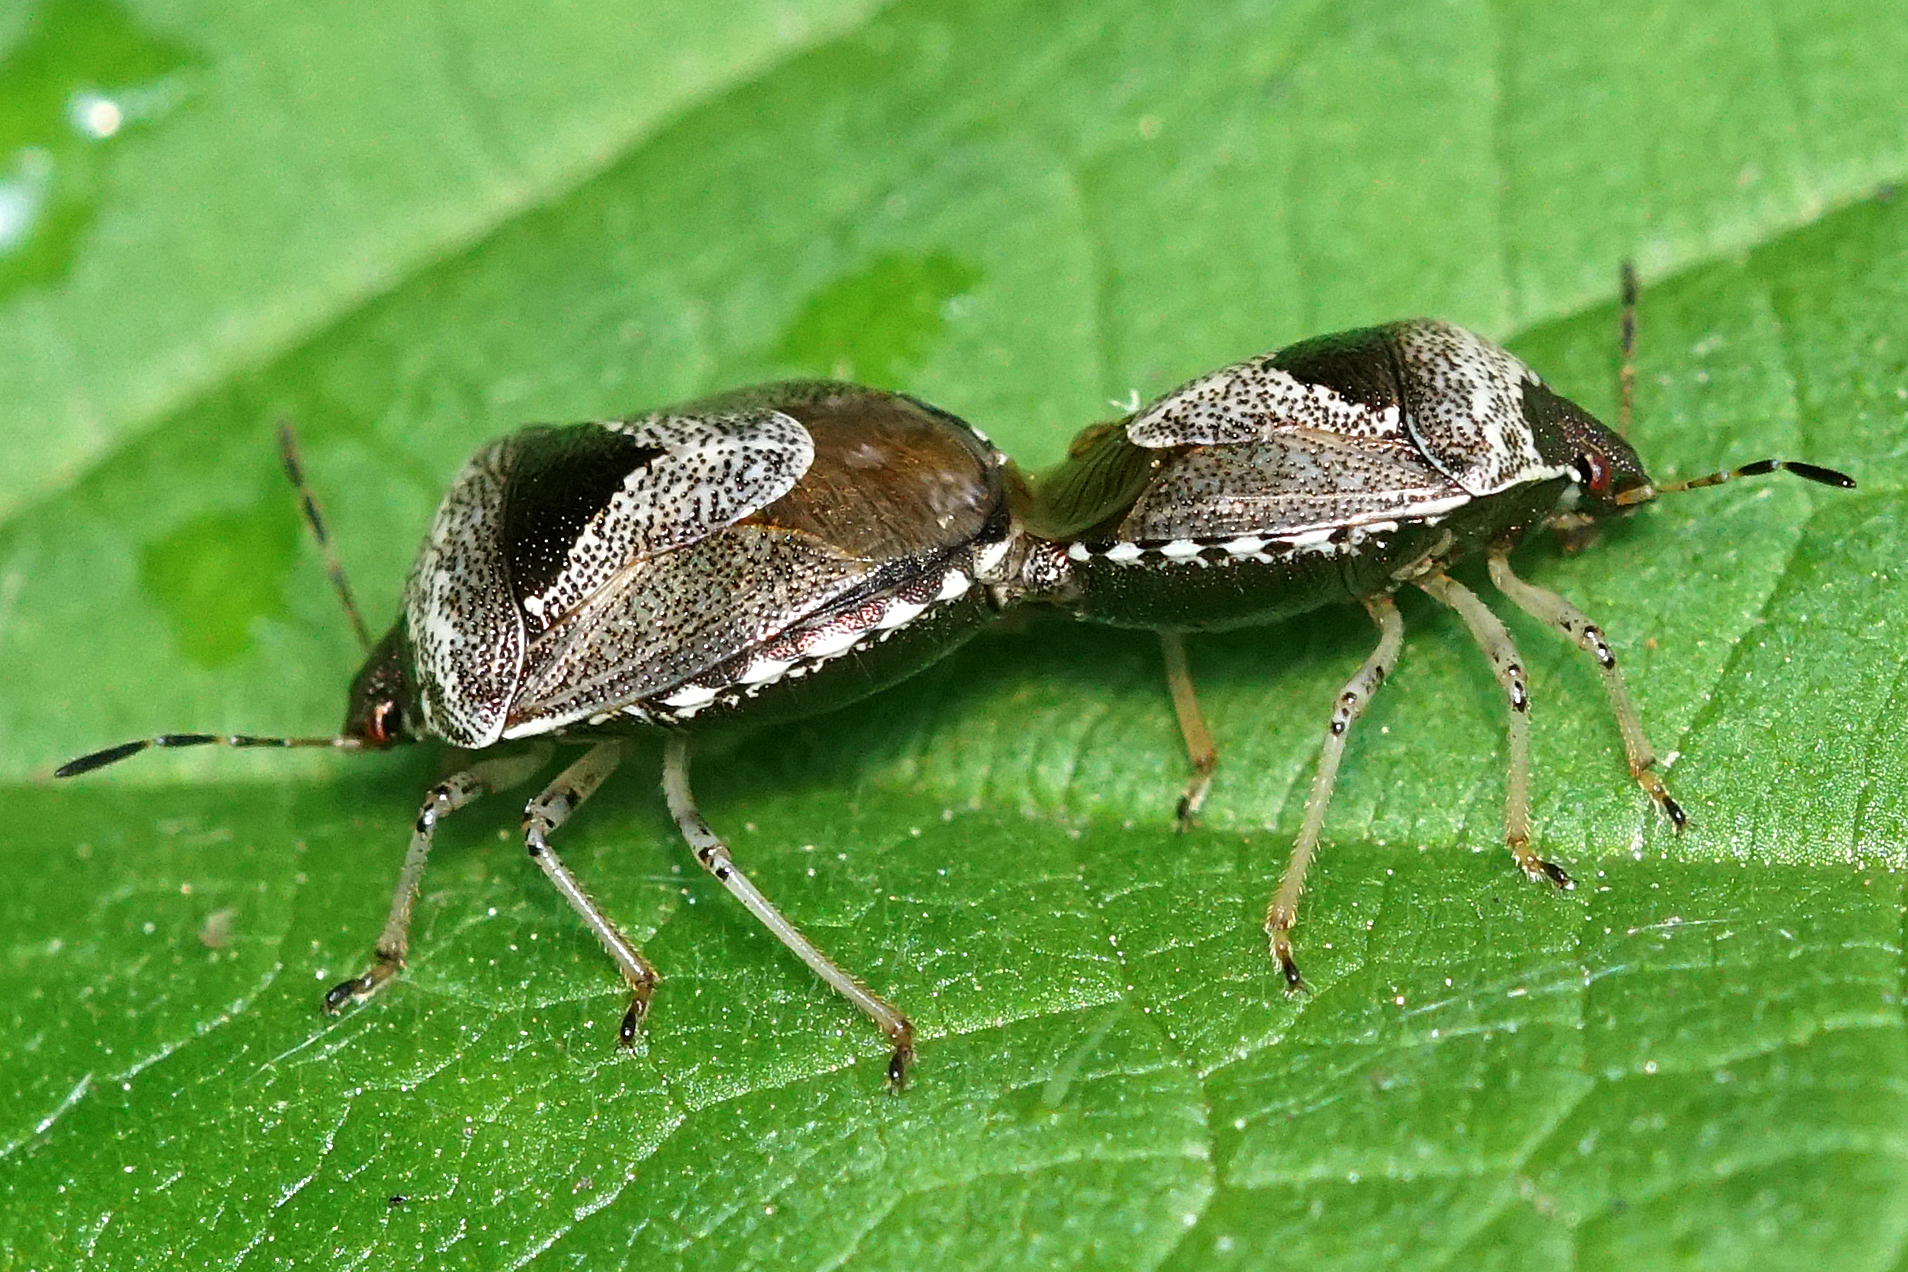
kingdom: Animalia
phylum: Arthropoda
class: Insecta
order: Hemiptera
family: Pentatomidae
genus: Eysarcoris
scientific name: Eysarcoris venustissimus
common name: Woundwort shieldbug
